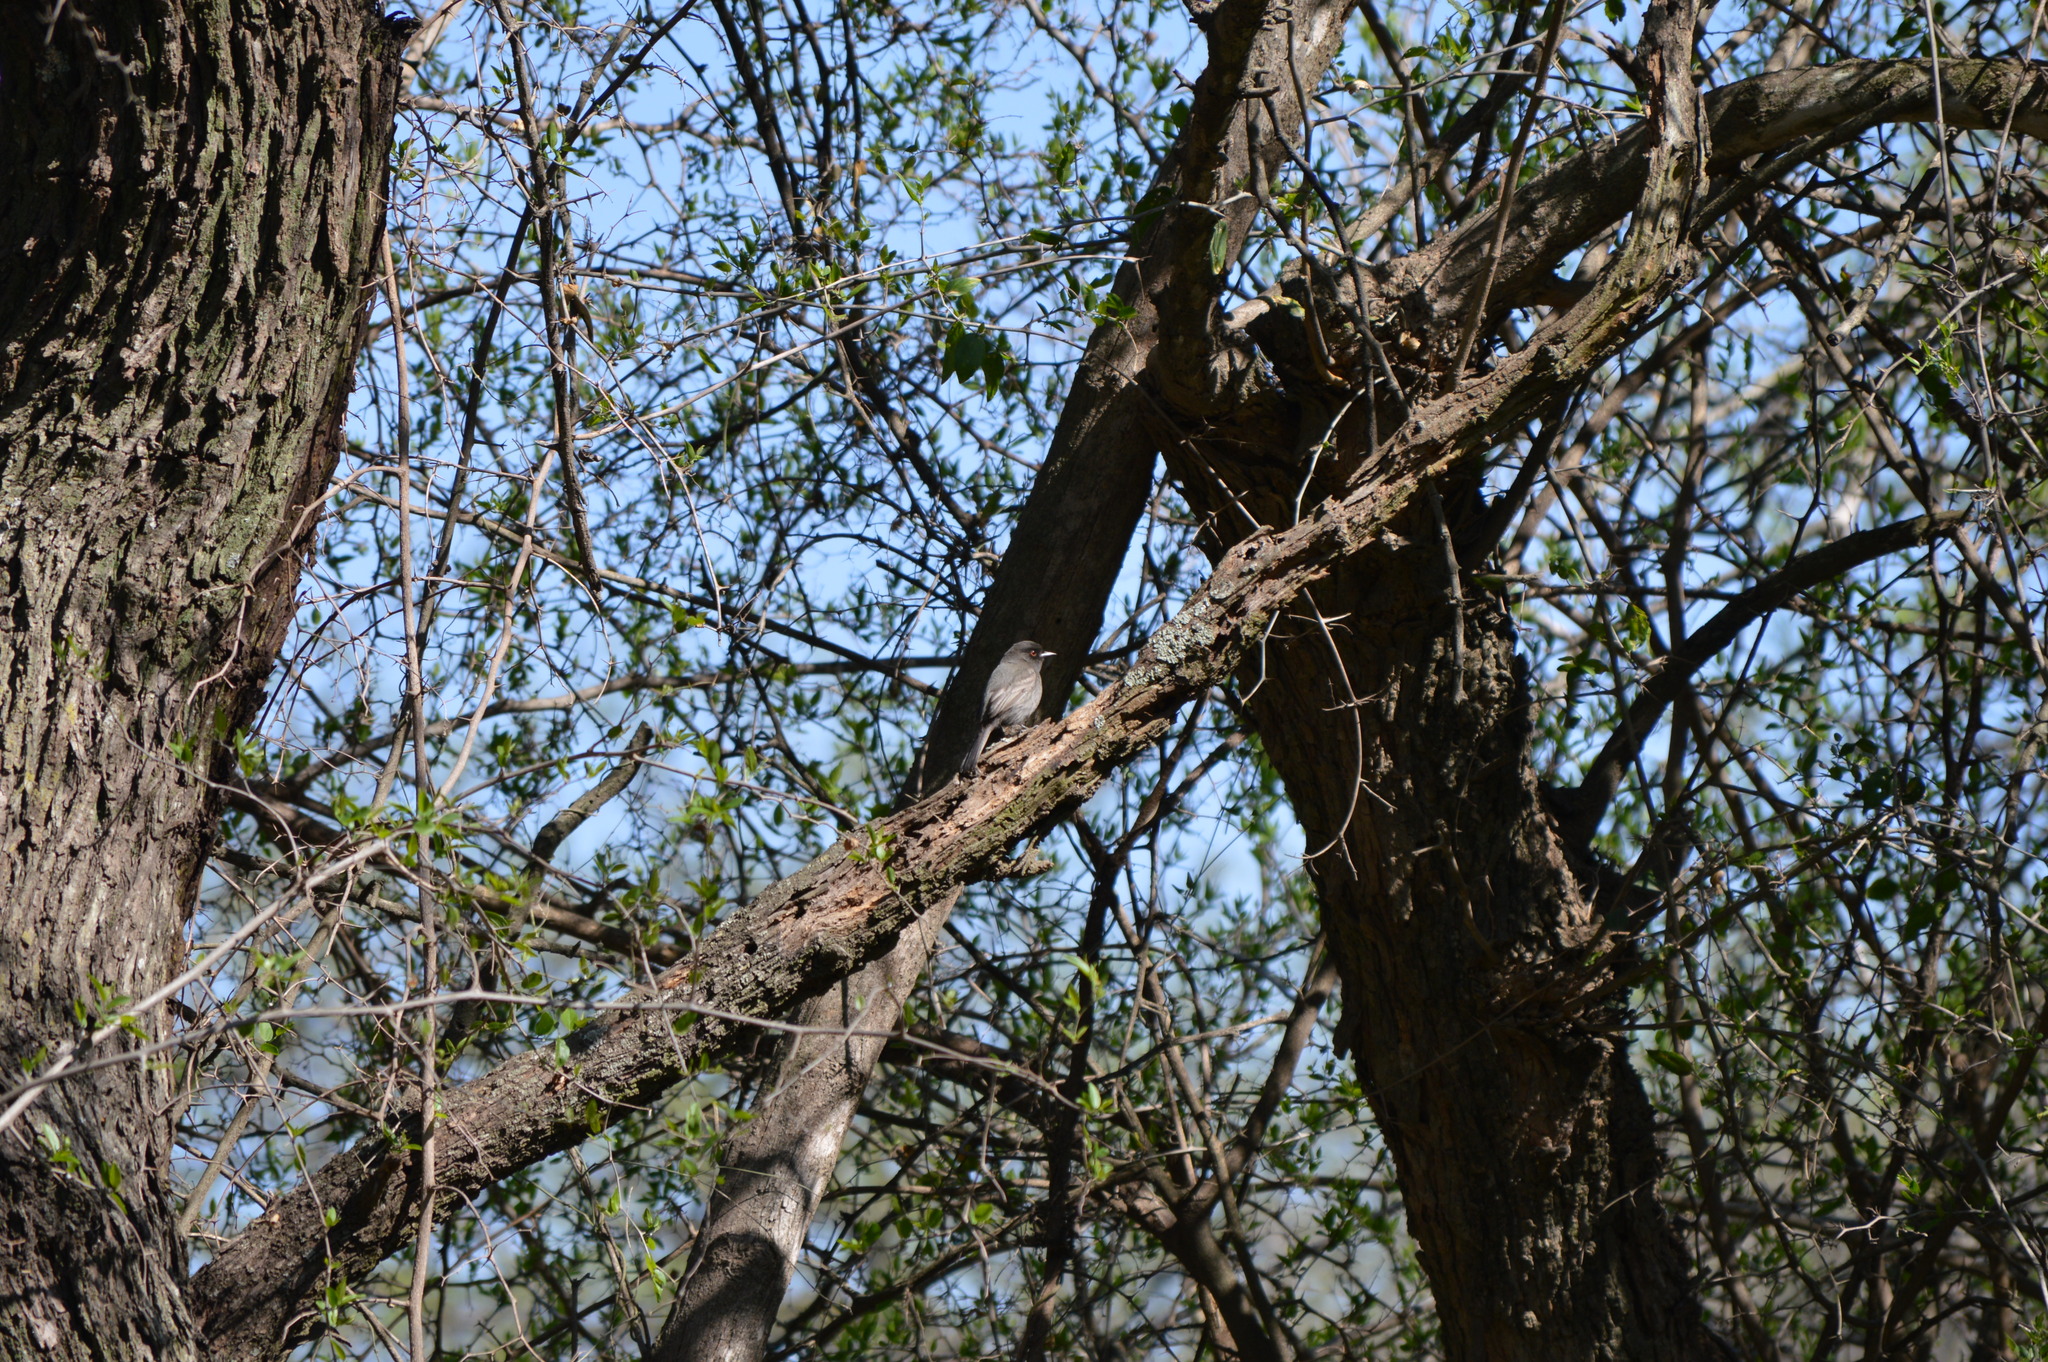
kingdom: Animalia
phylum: Chordata
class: Aves
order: Passeriformes
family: Tyrannidae
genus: Knipolegus
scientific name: Knipolegus striaticeps
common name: Cinereous tyrant
